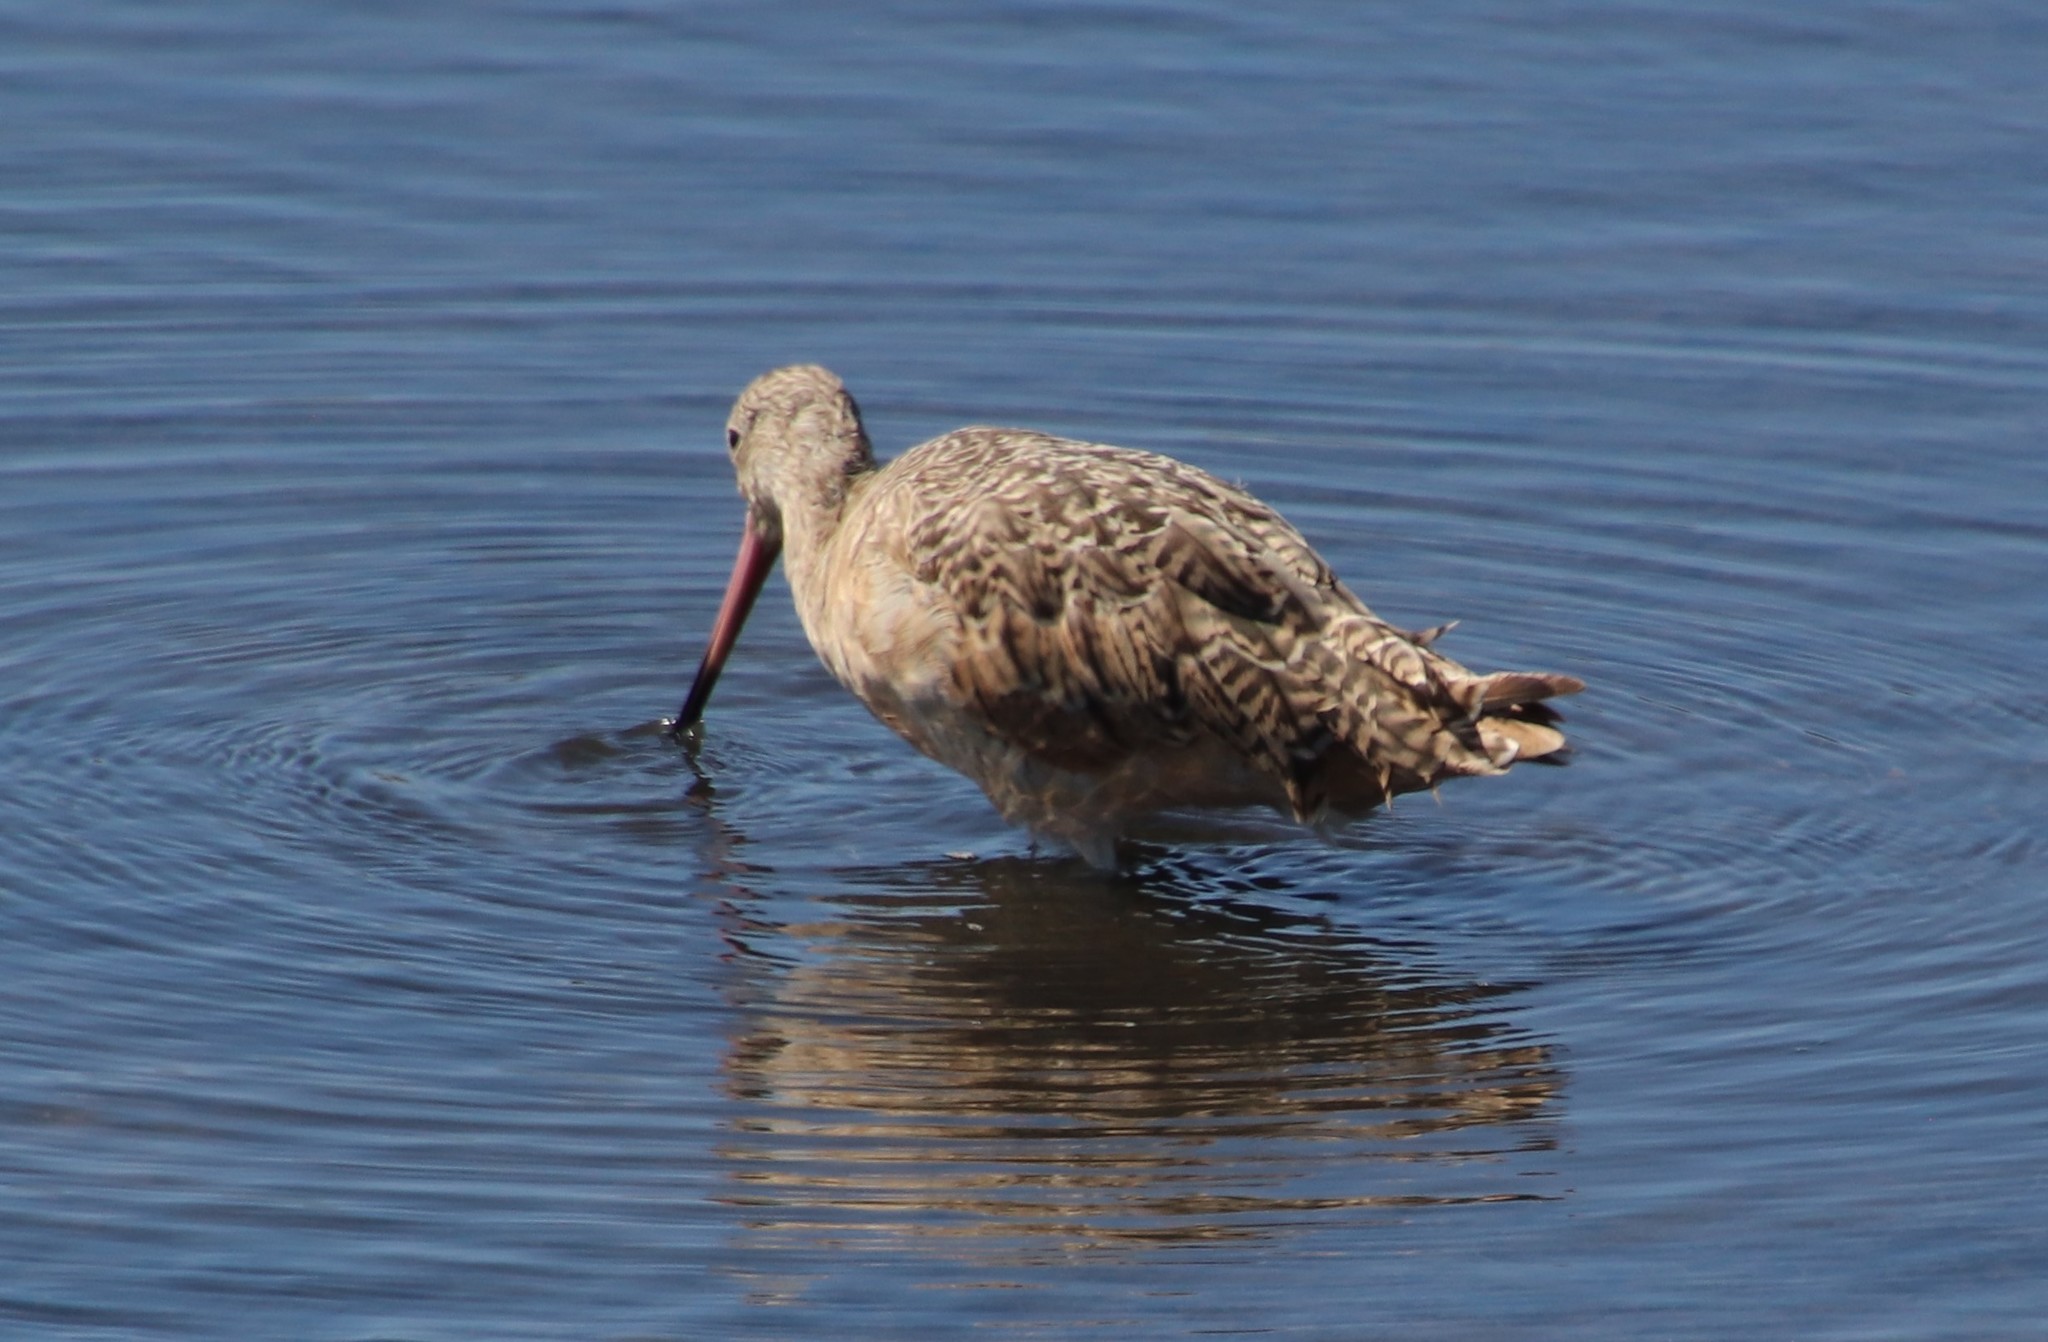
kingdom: Animalia
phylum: Chordata
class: Aves
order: Charadriiformes
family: Scolopacidae
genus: Limosa
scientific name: Limosa fedoa
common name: Marbled godwit
